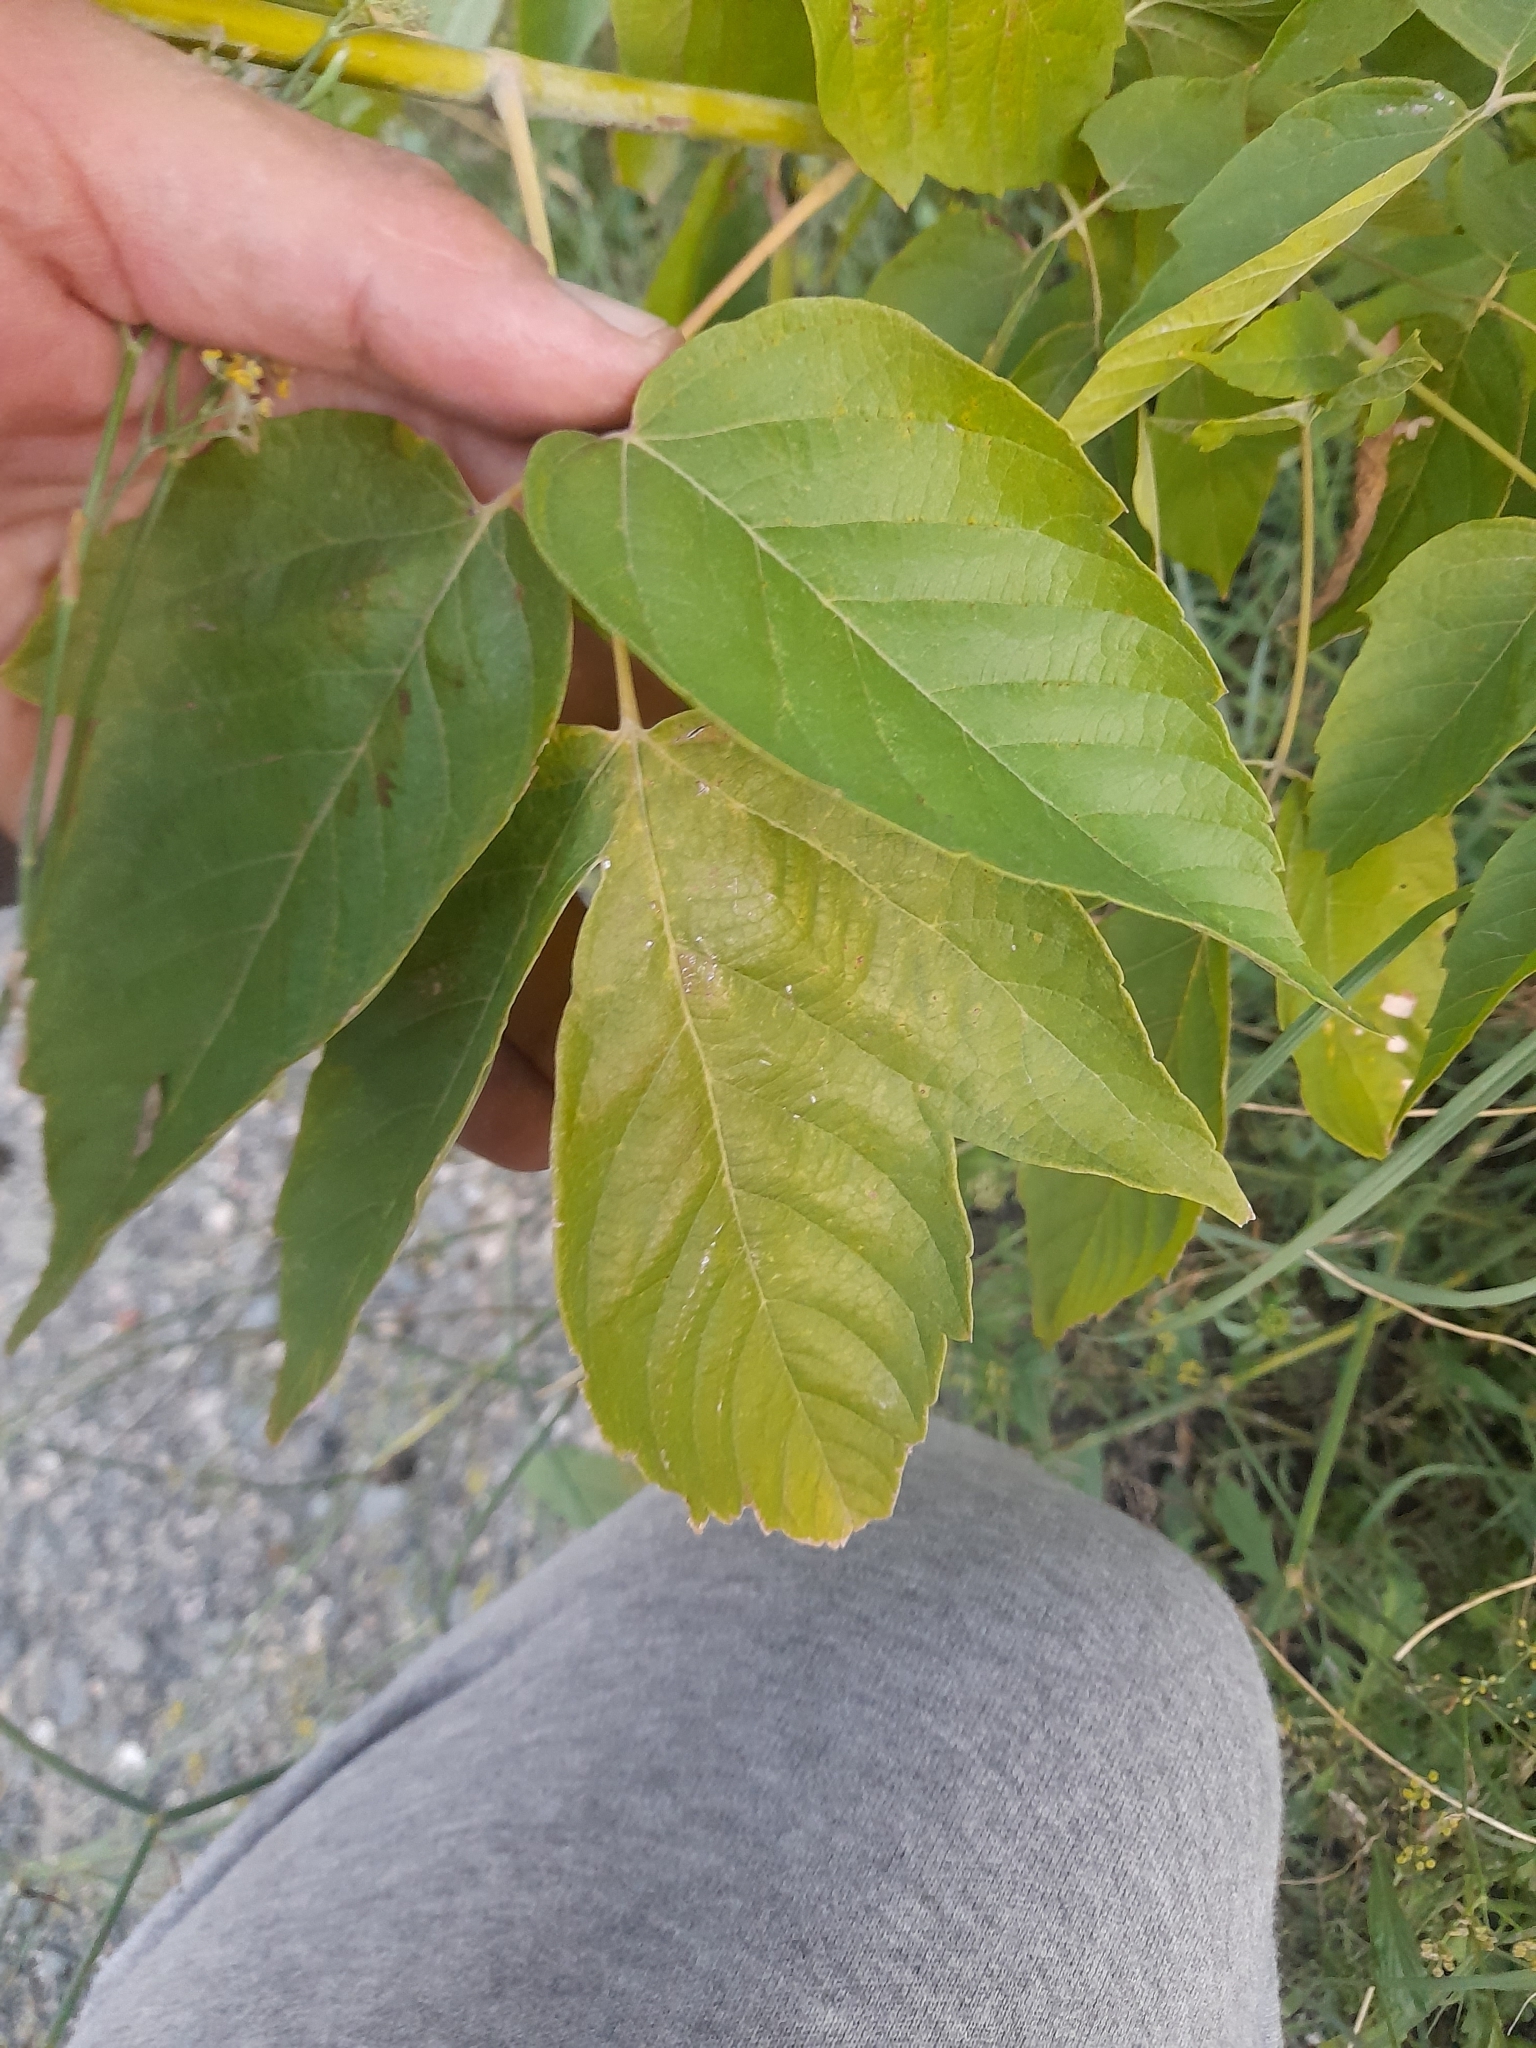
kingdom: Plantae
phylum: Tracheophyta
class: Magnoliopsida
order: Sapindales
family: Sapindaceae
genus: Acer
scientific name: Acer negundo
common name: Ashleaf maple
